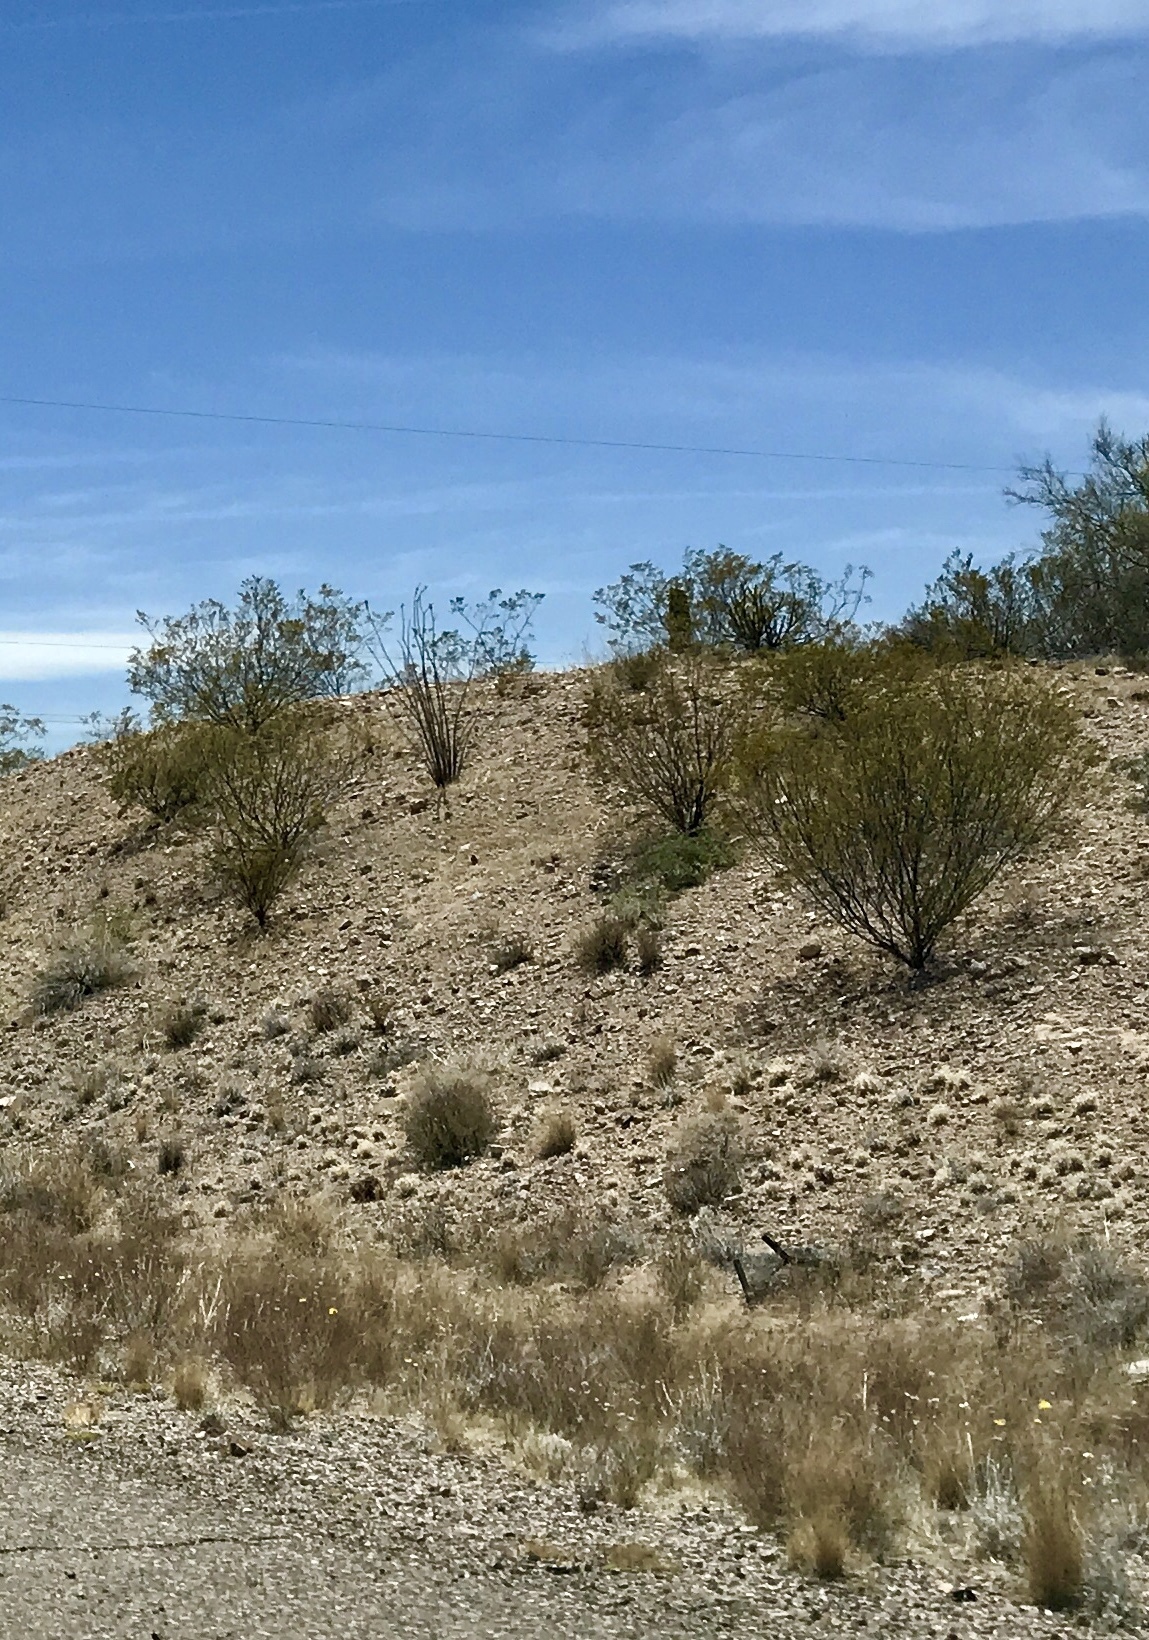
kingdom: Plantae
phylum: Tracheophyta
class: Magnoliopsida
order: Zygophyllales
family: Zygophyllaceae
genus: Larrea
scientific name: Larrea tridentata
